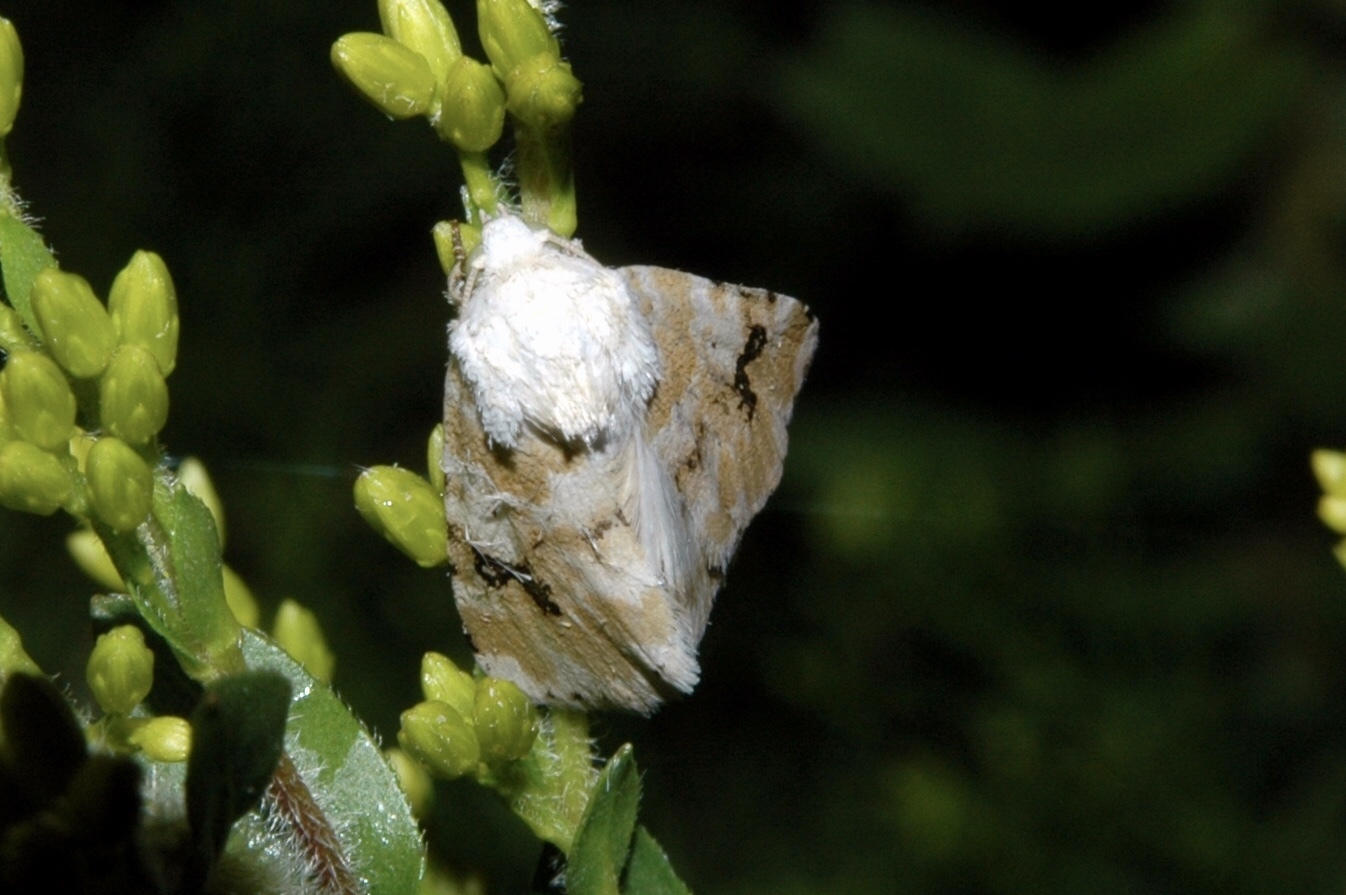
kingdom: Animalia
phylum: Arthropoda
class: Insecta
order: Lepidoptera
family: Noctuidae
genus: Schinia
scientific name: Schinia nundina
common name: Goldenrod flower moth
